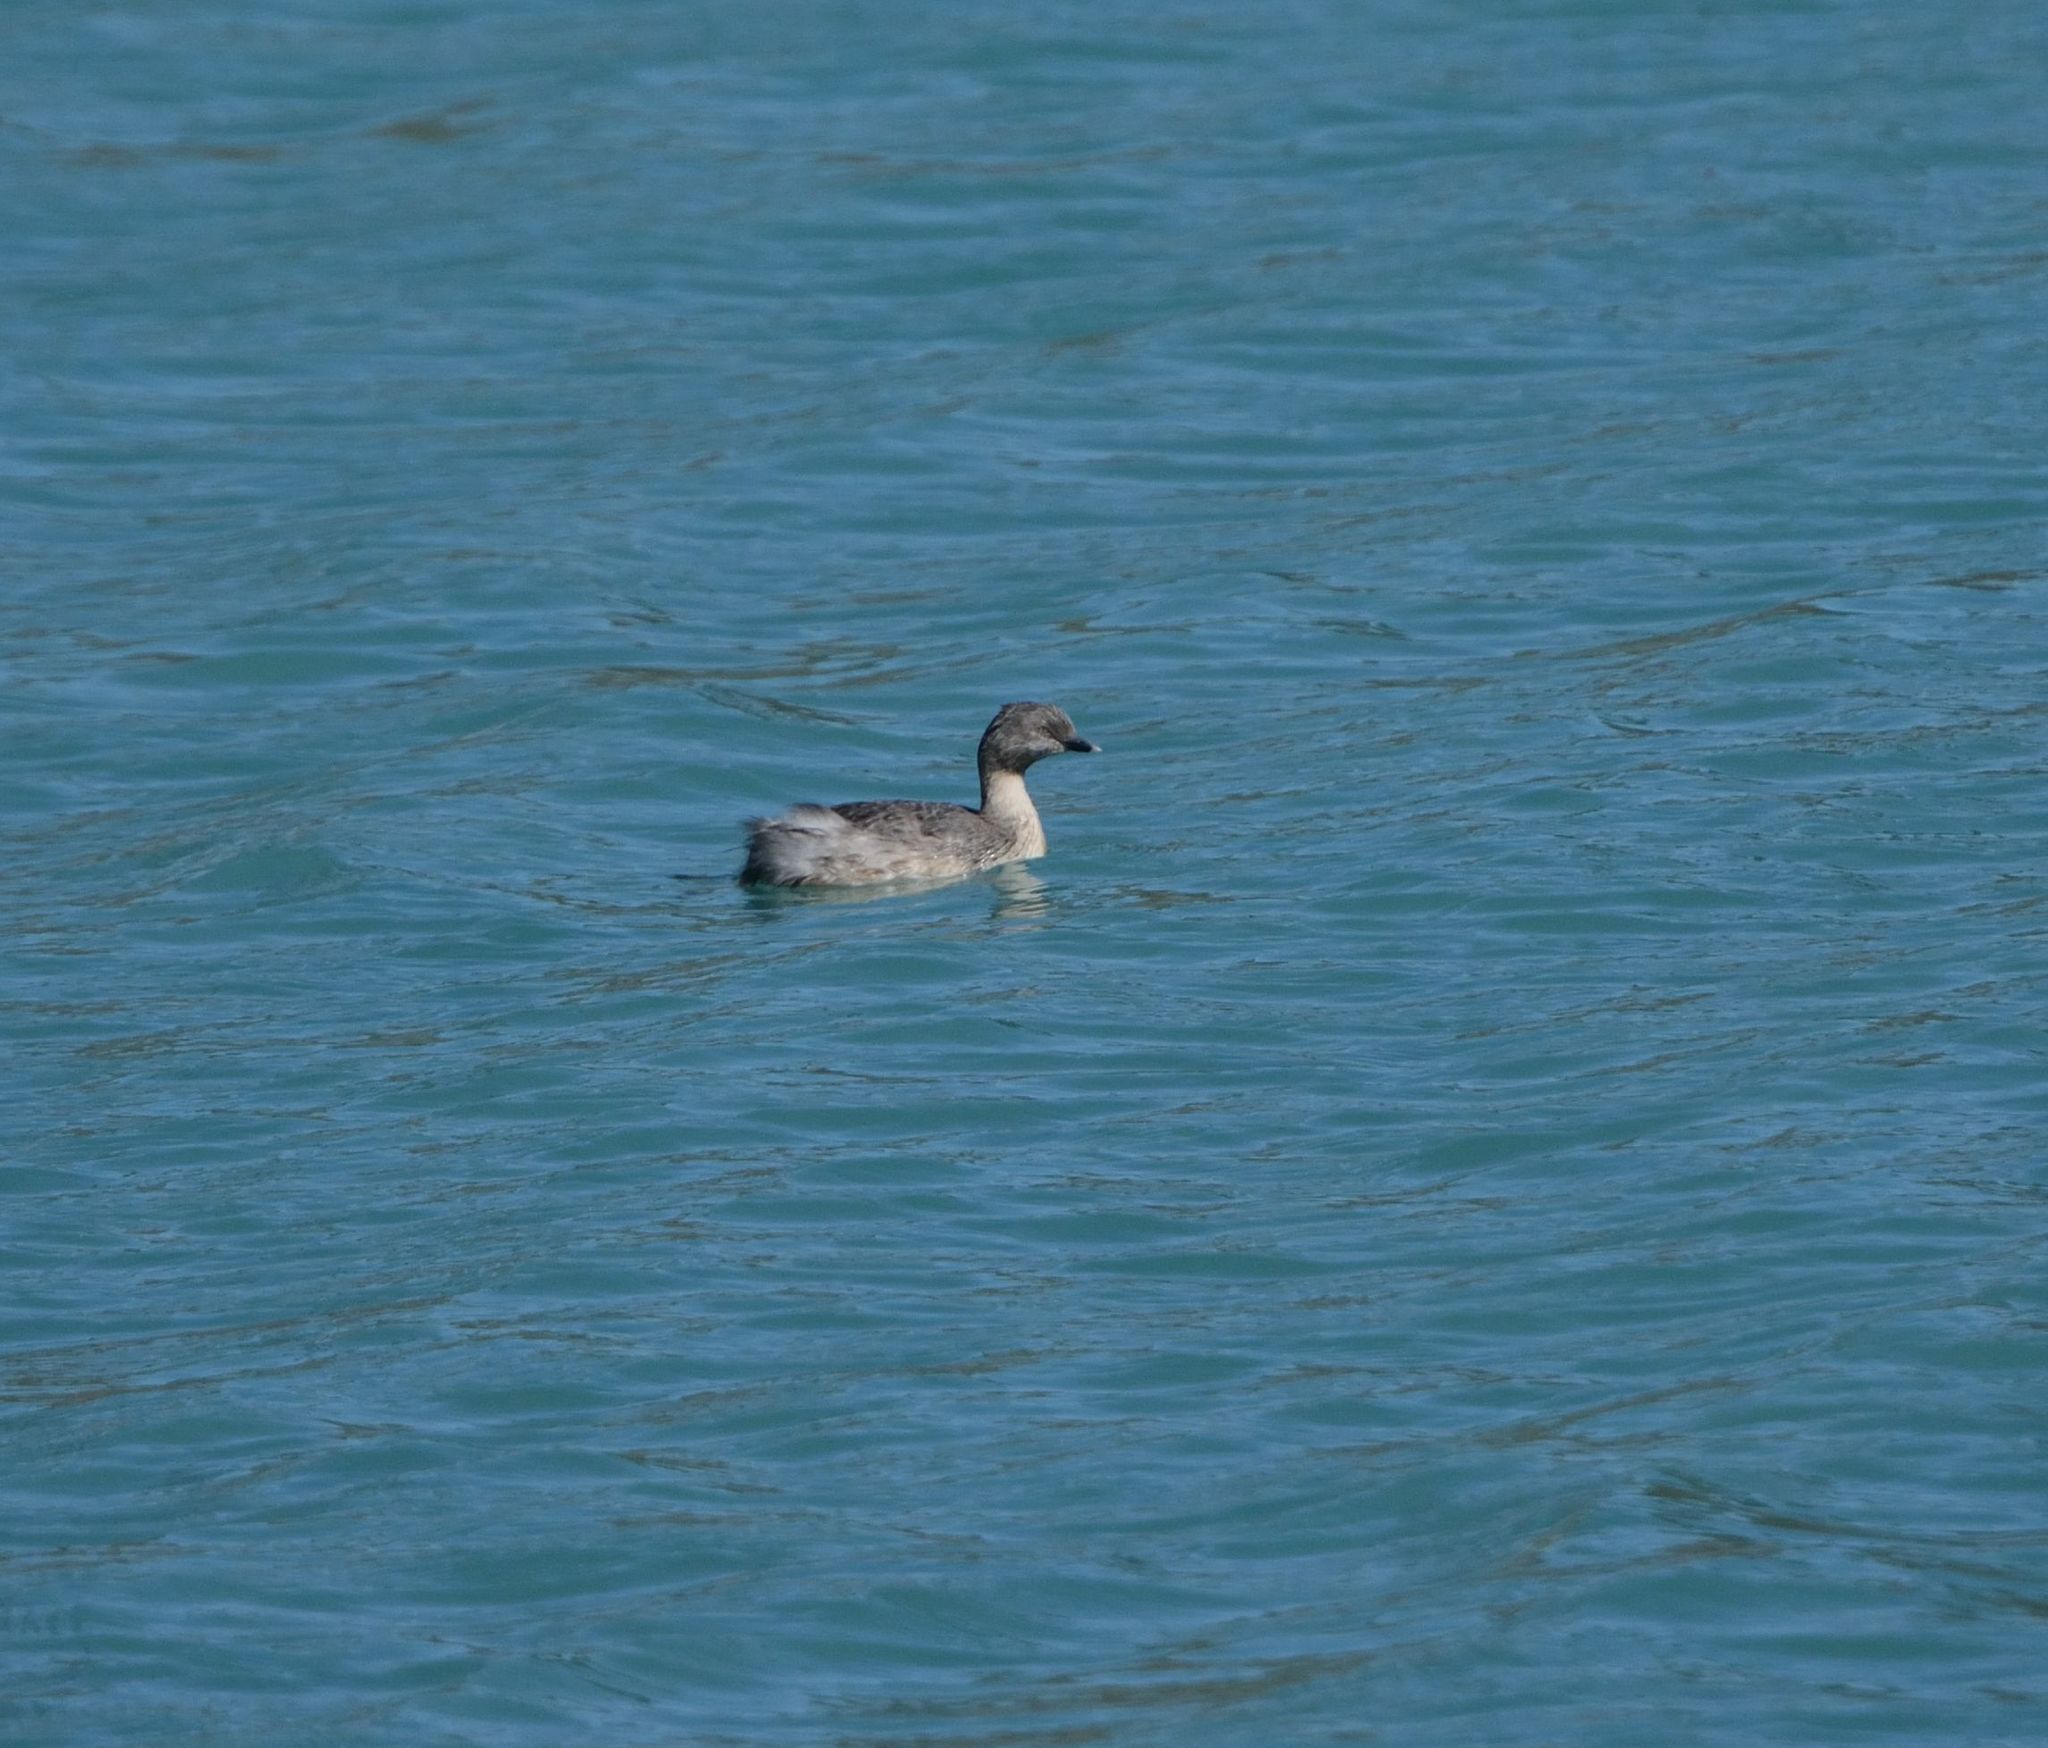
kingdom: Animalia
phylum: Chordata
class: Aves
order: Podicipediformes
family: Podicipedidae
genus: Poliocephalus
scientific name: Poliocephalus poliocephalus
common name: Hoary-headed grebe
